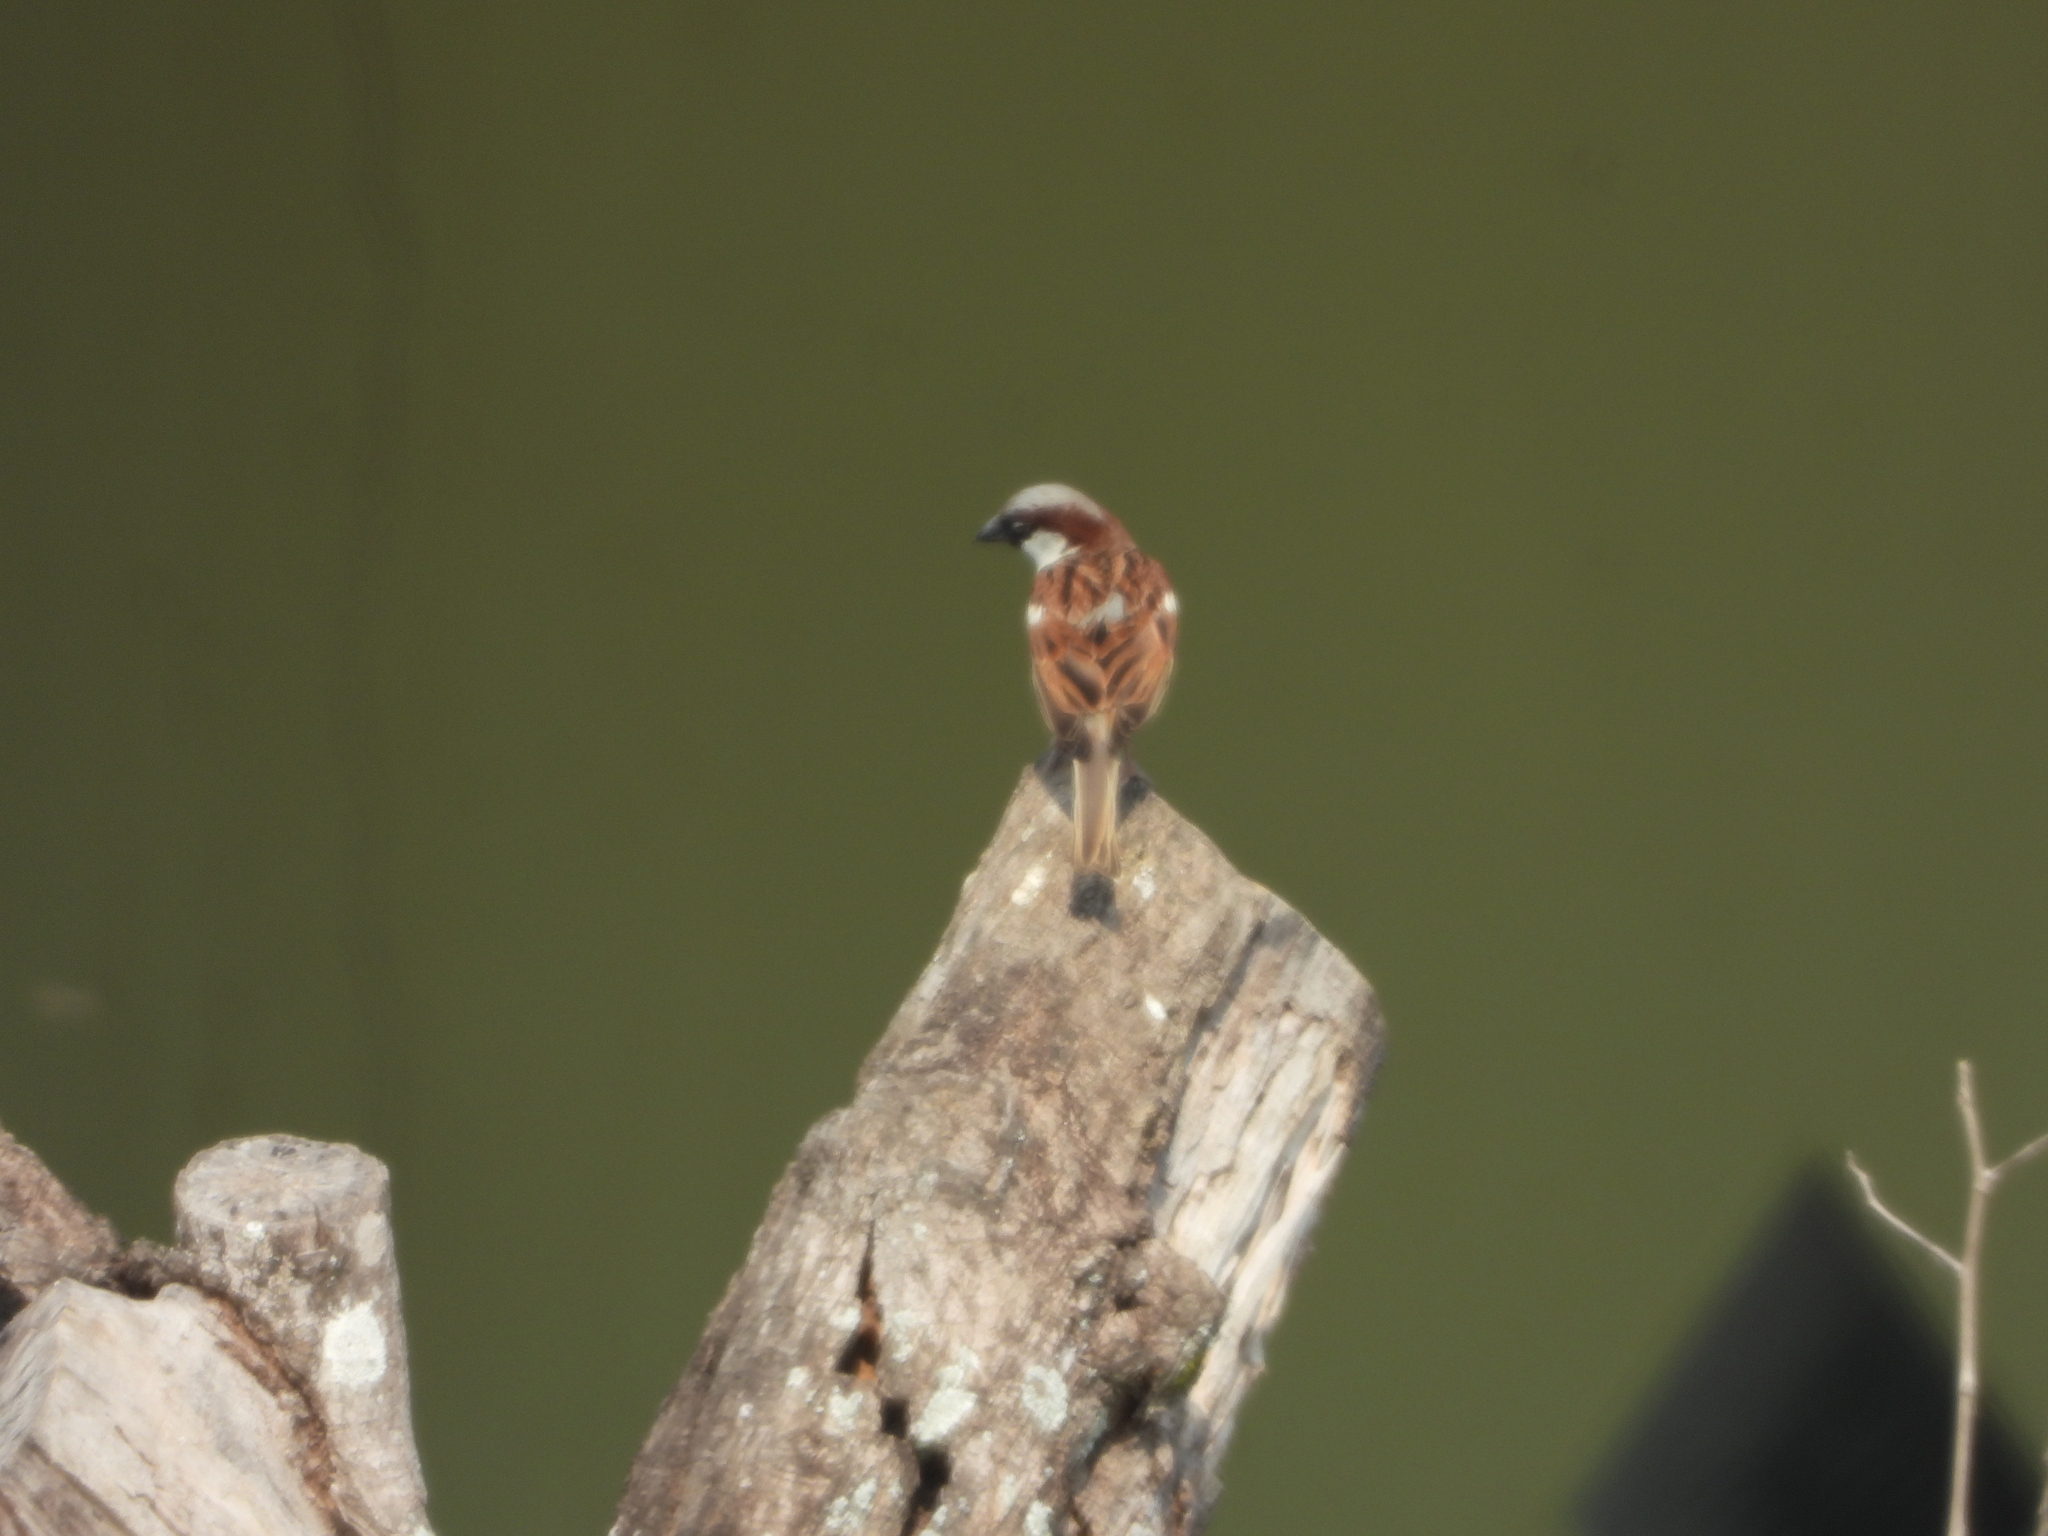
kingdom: Animalia
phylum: Chordata
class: Aves
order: Passeriformes
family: Passeridae
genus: Passer
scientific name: Passer domesticus
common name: House sparrow
